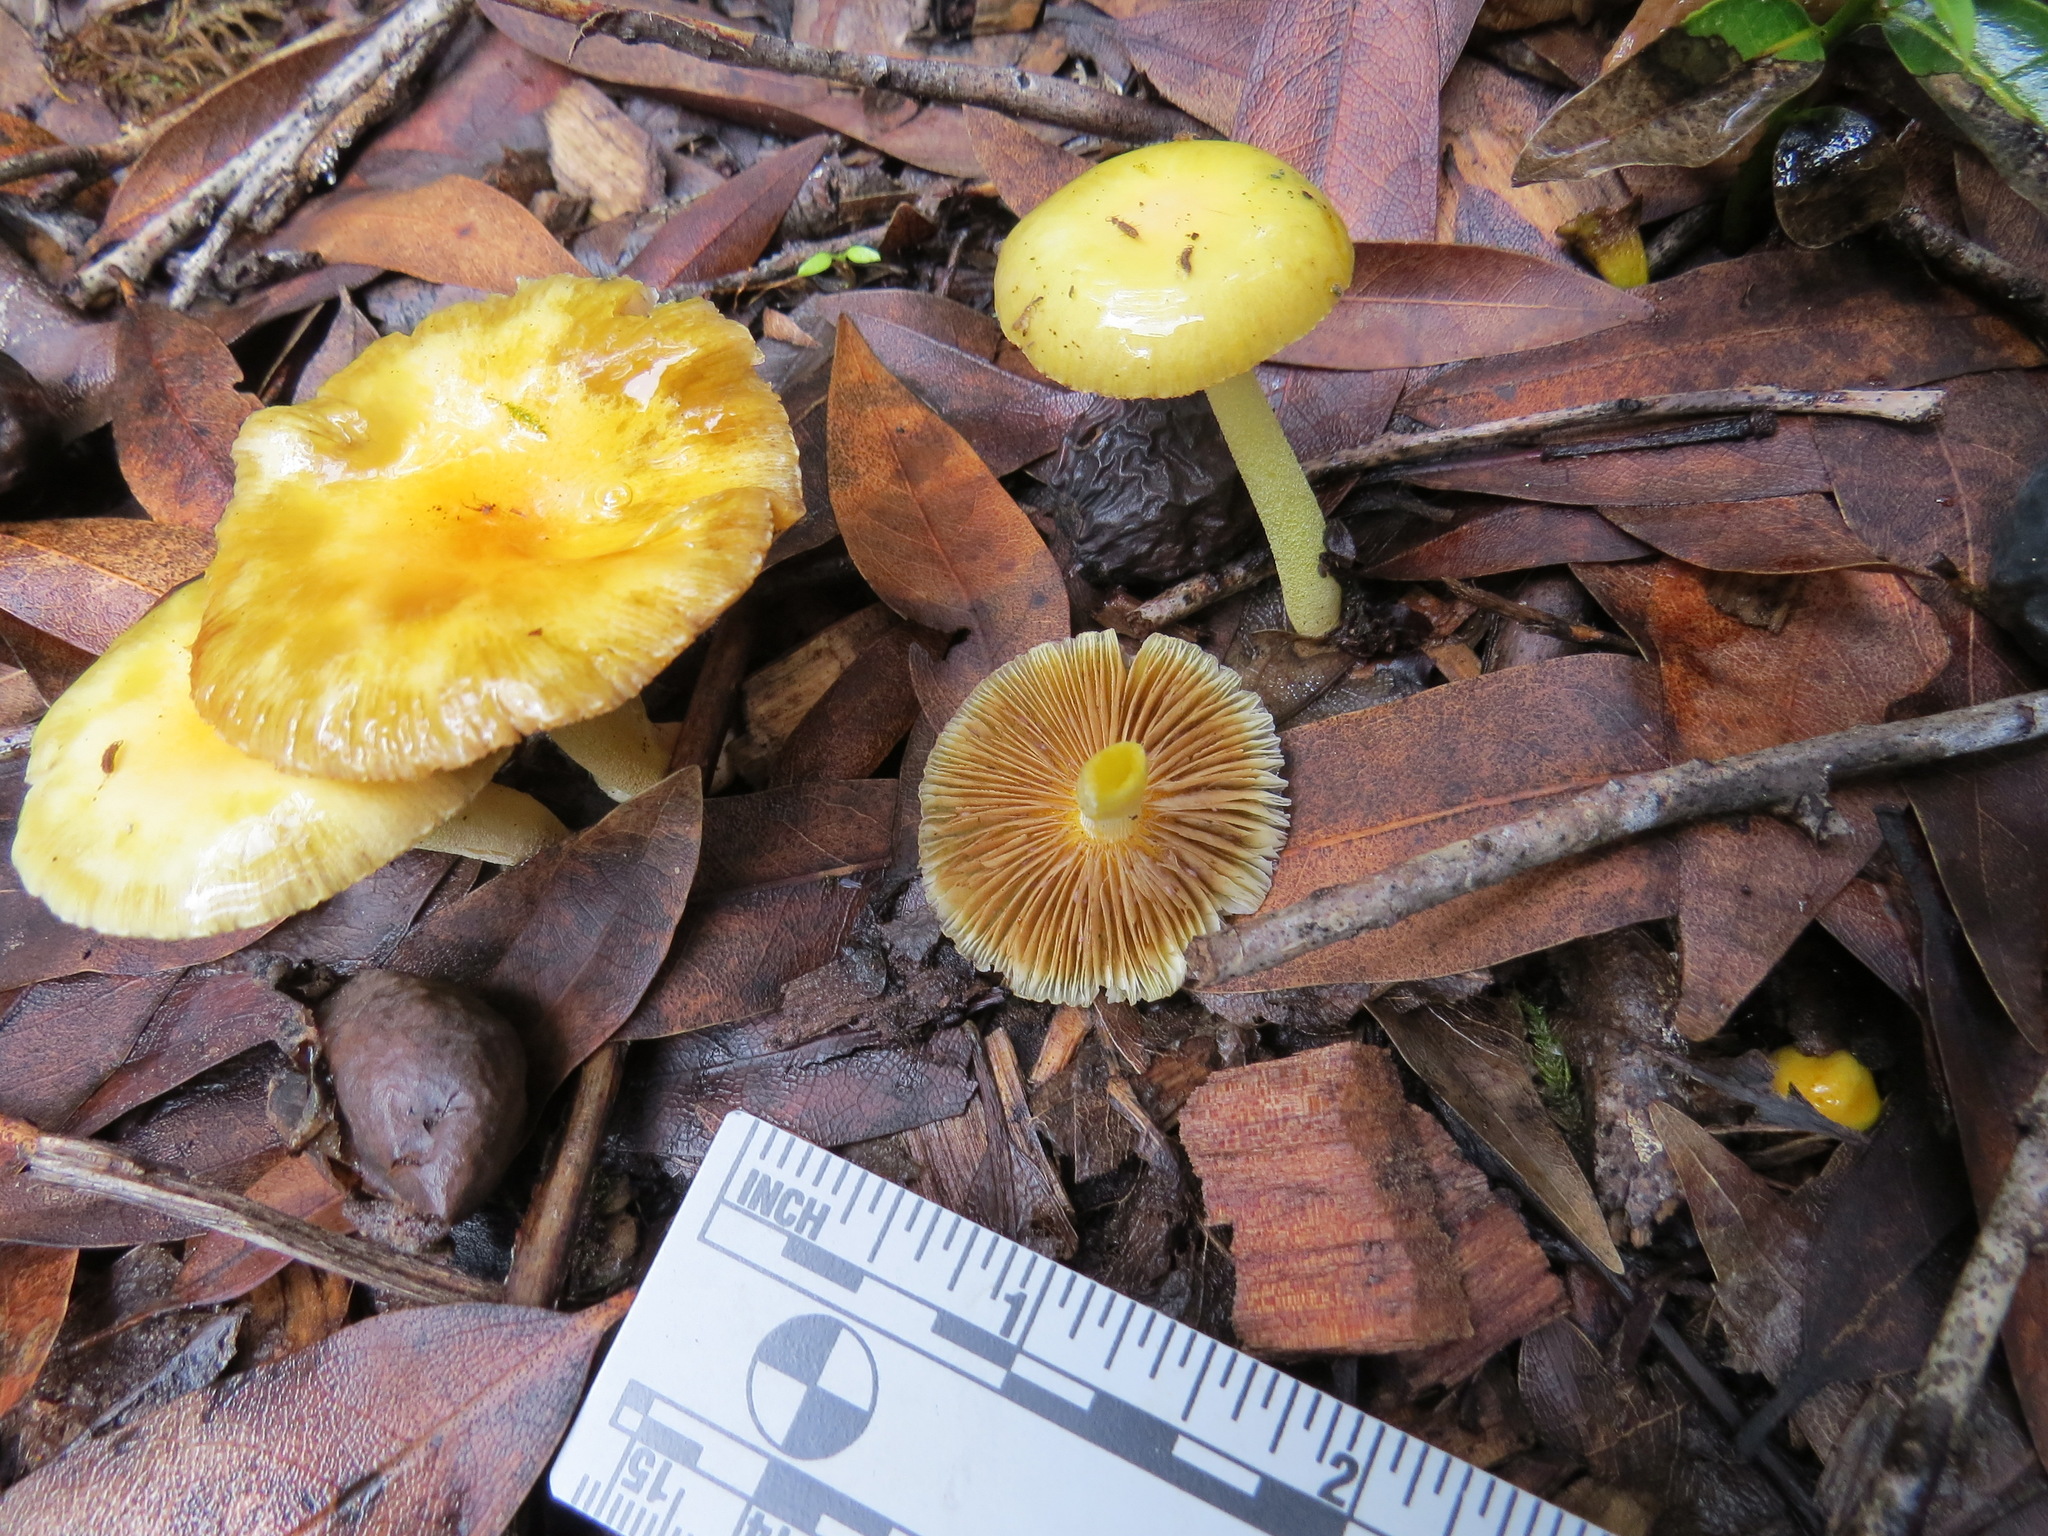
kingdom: Fungi
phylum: Basidiomycota
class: Agaricomycetes
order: Agaricales
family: Bolbitiaceae
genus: Bolbitius
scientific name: Bolbitius titubans
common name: Yellow fieldcap
